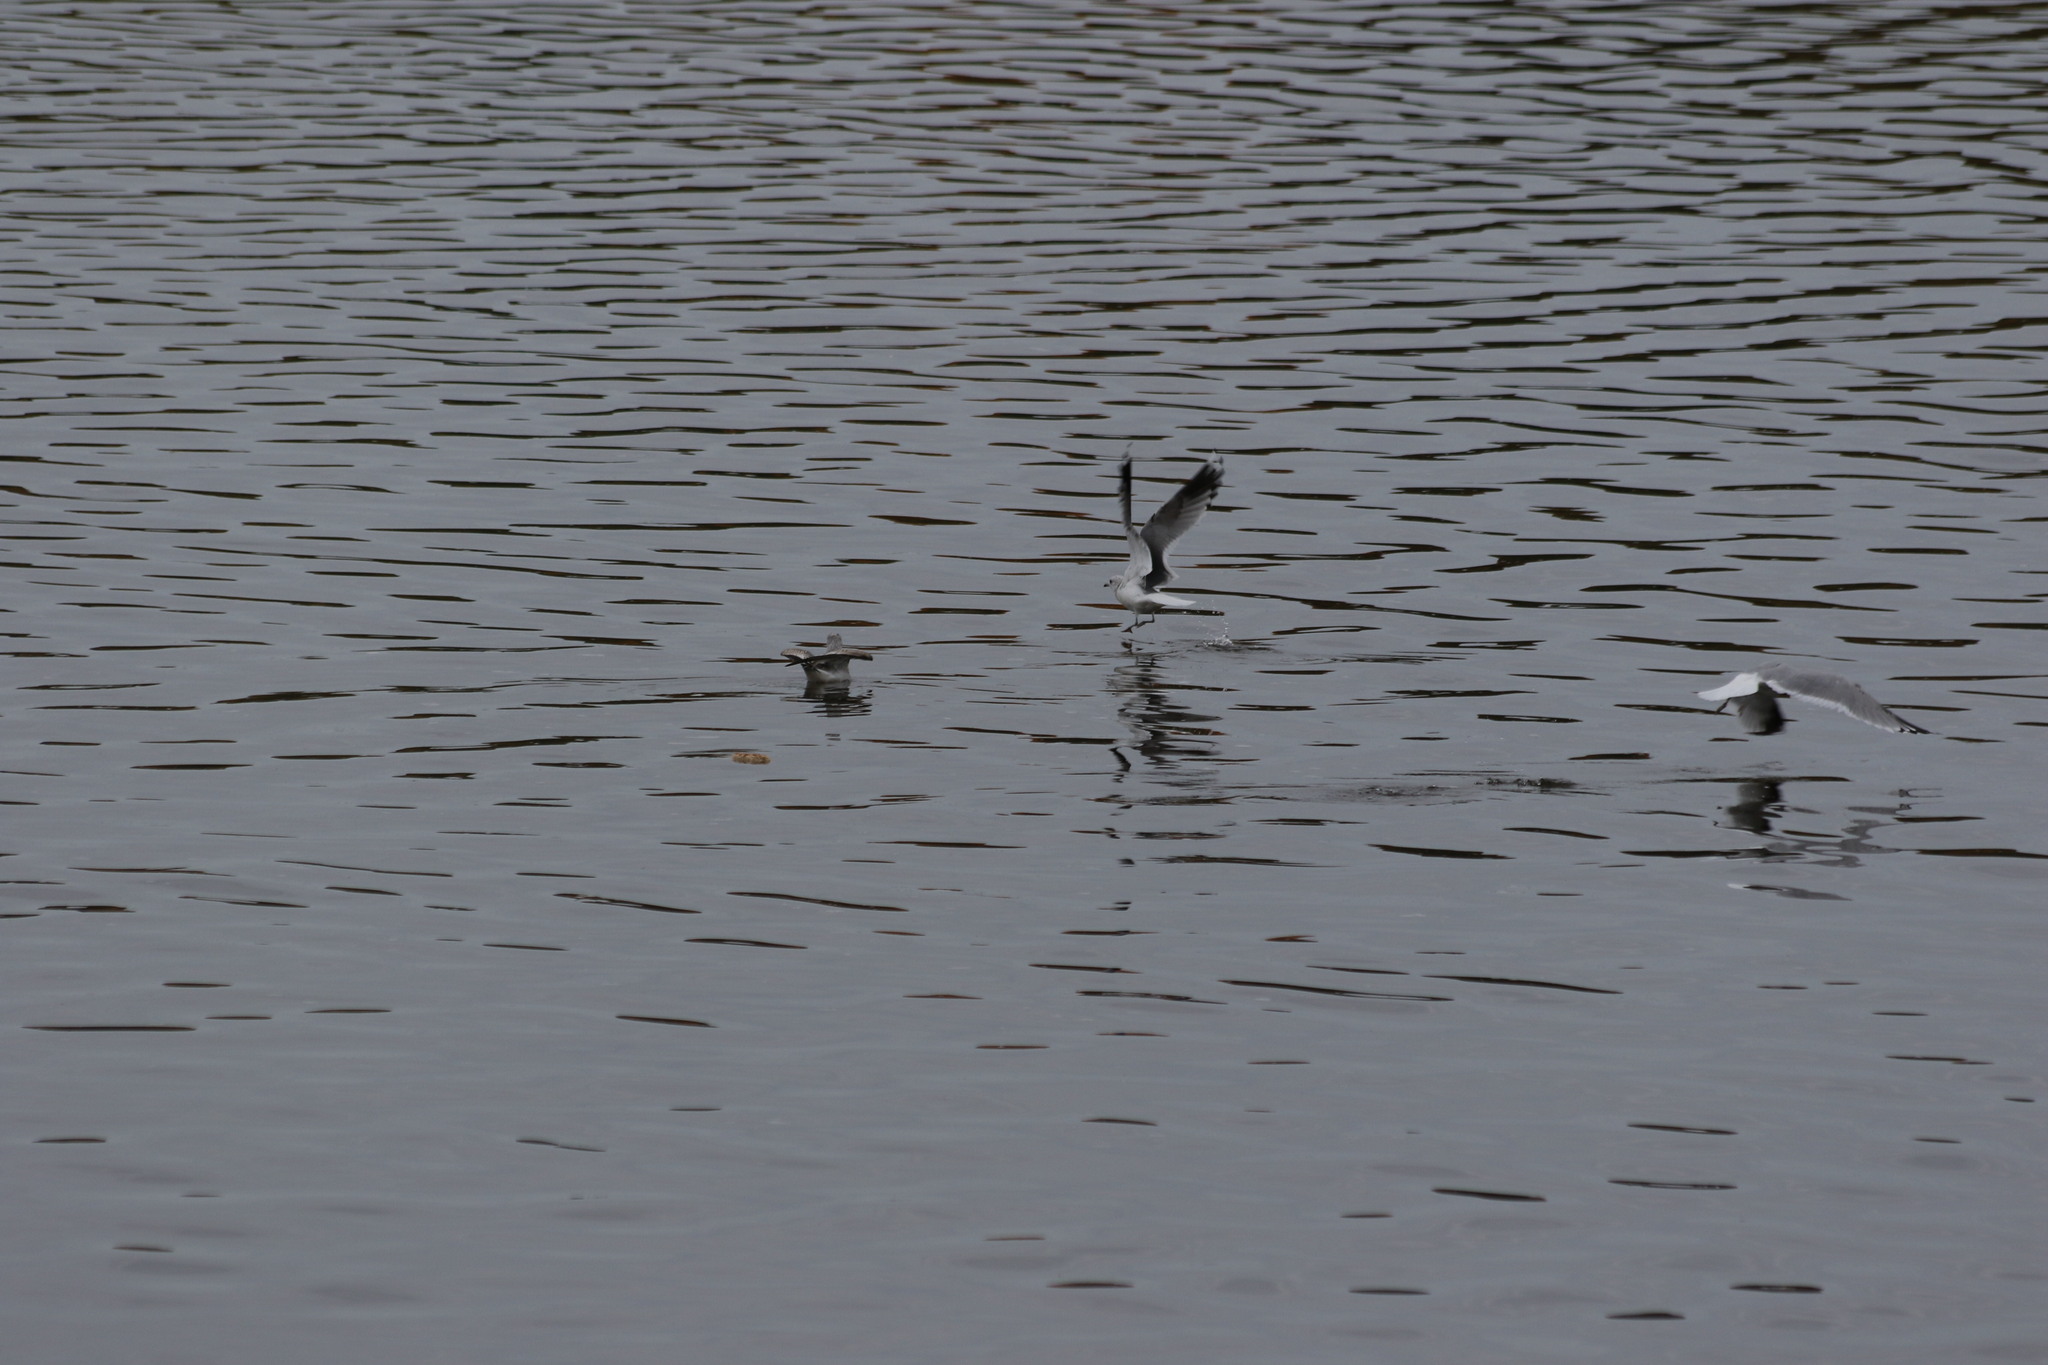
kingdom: Animalia
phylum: Chordata
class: Aves
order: Charadriiformes
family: Laridae
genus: Larus
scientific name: Larus canus
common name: Mew gull
